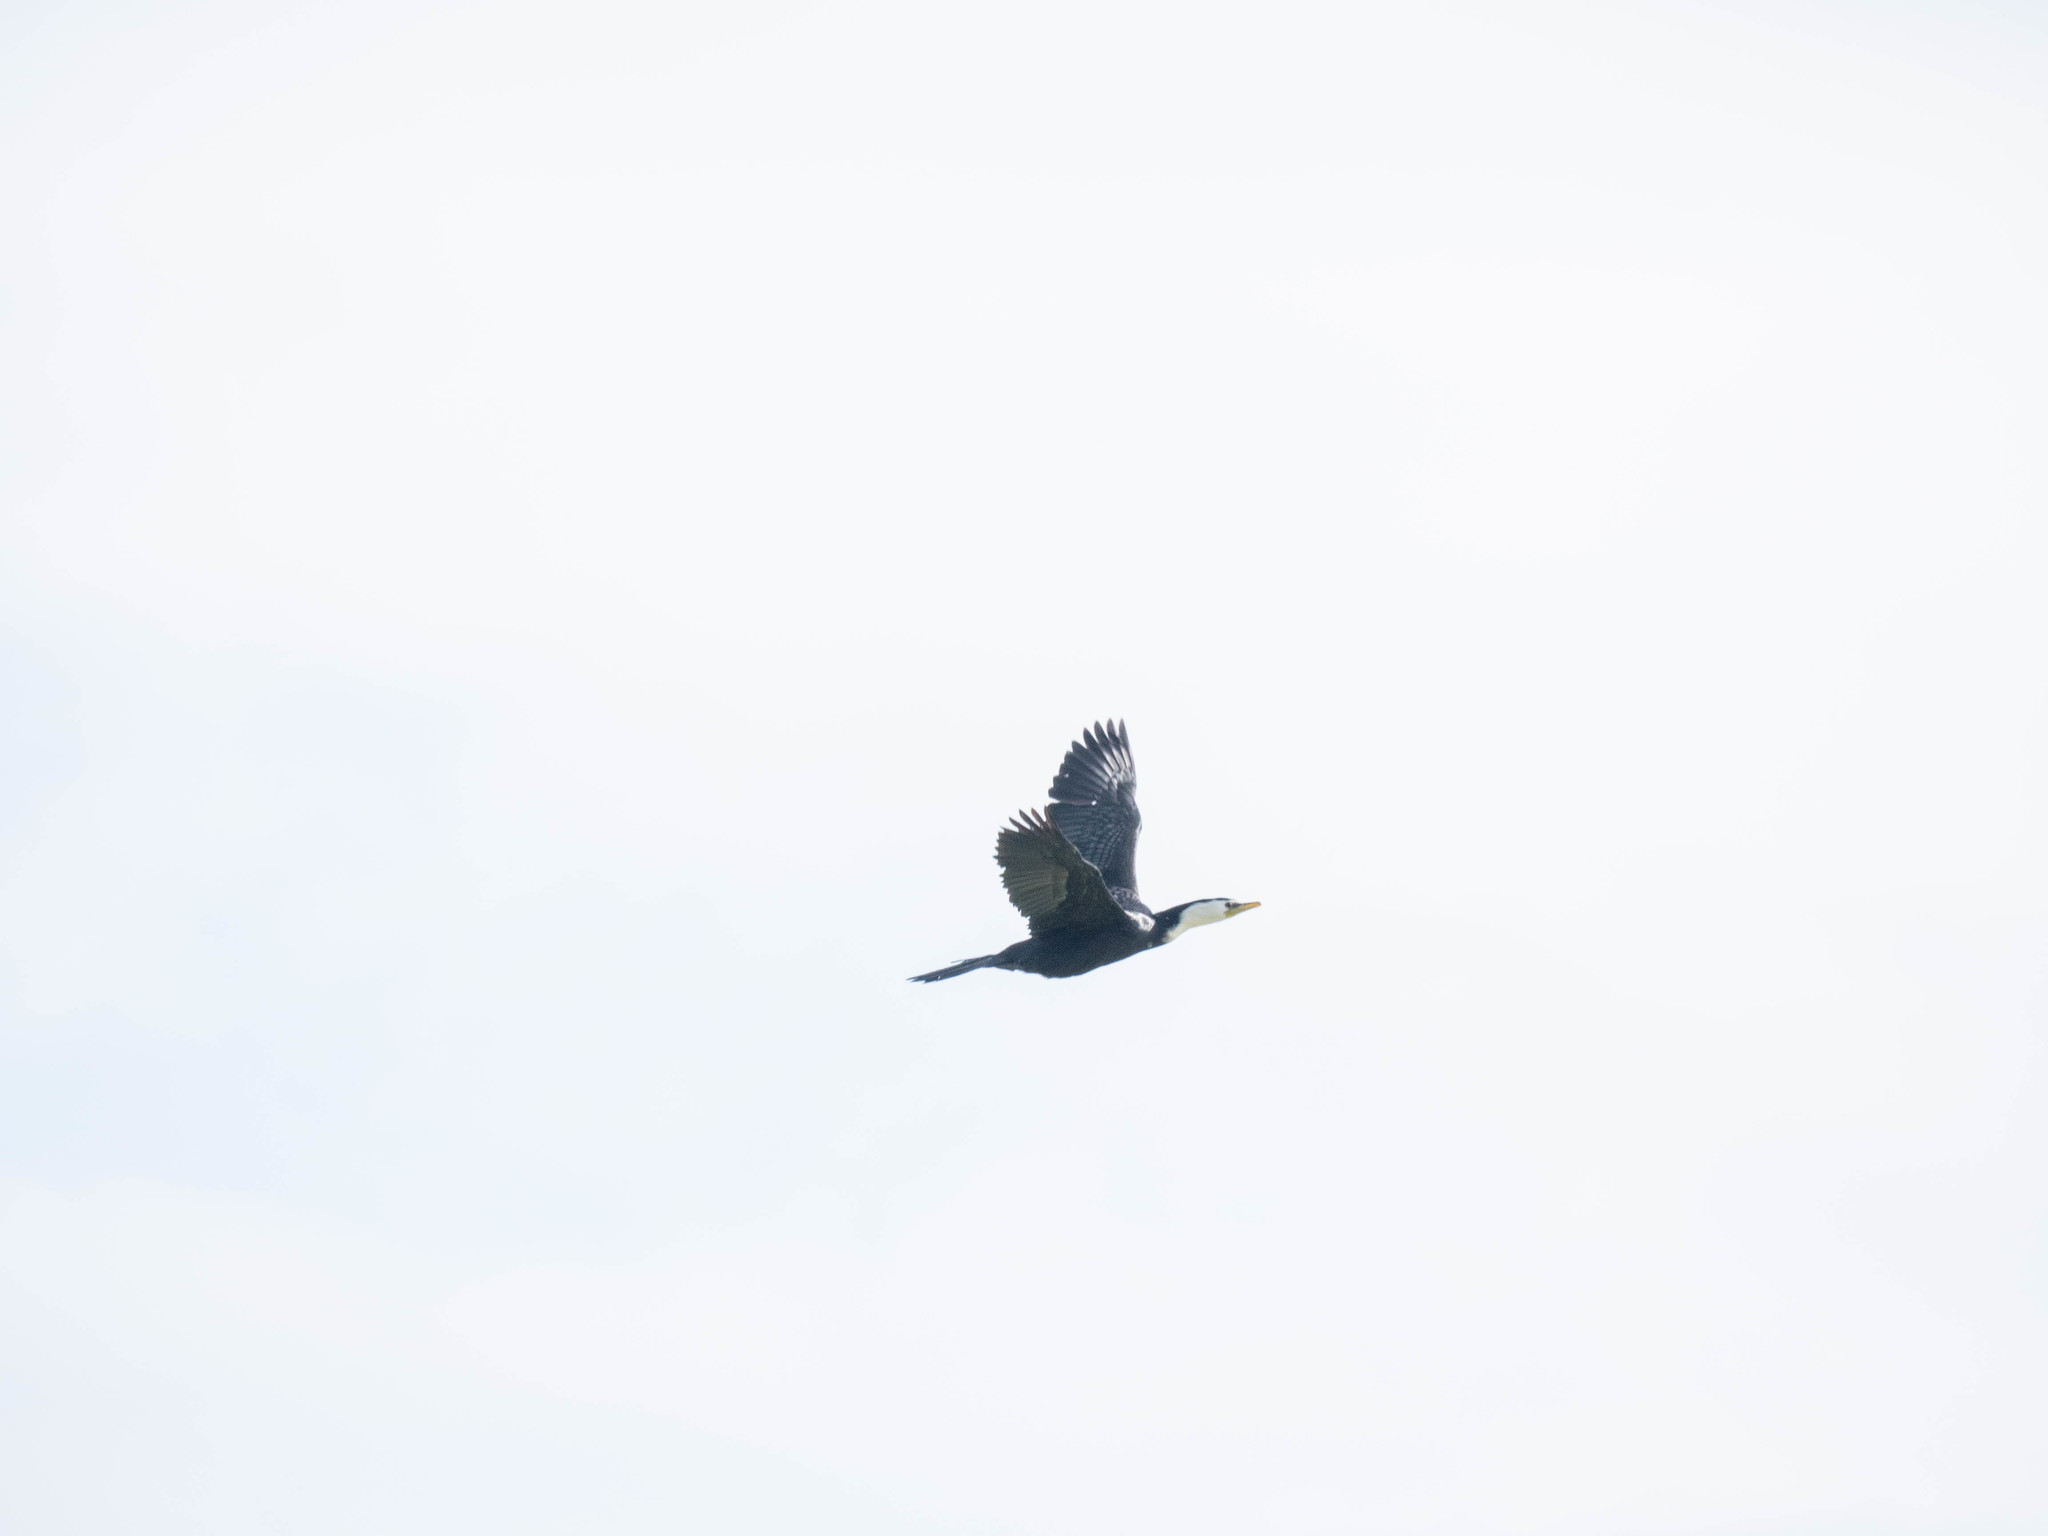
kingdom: Animalia
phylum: Chordata
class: Aves
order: Suliformes
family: Phalacrocoracidae
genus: Microcarbo
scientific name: Microcarbo melanoleucos
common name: Little pied cormorant
